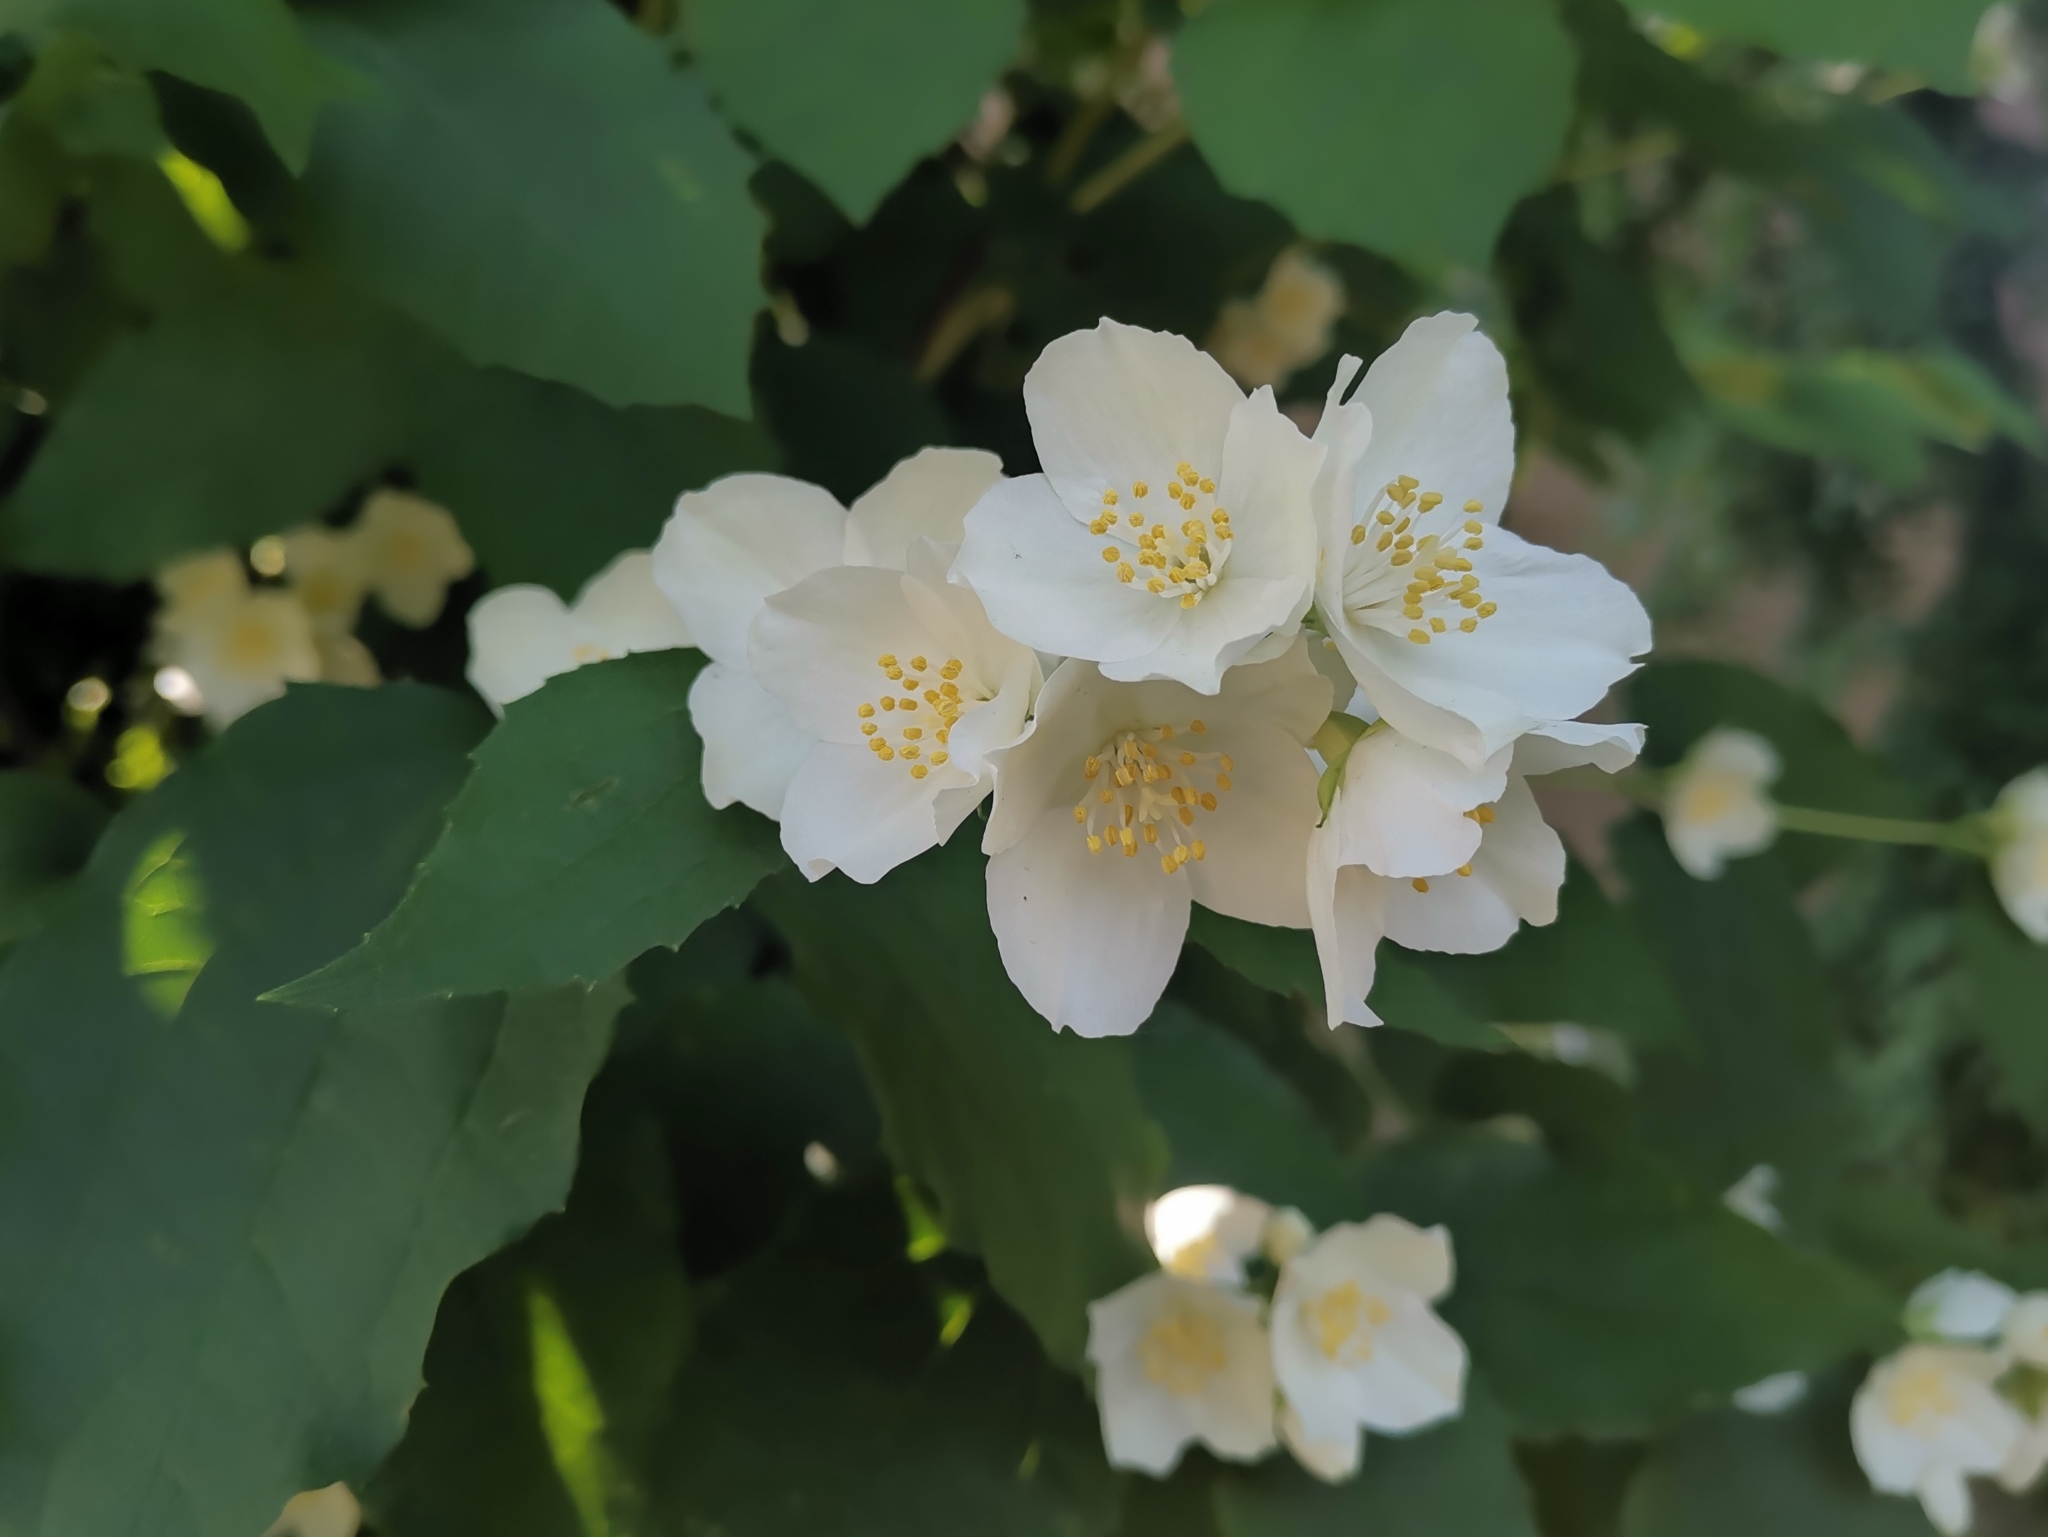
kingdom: Plantae
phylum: Tracheophyta
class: Magnoliopsida
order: Cornales
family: Hydrangeaceae
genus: Philadelphus
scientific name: Philadelphus coronarius
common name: Mock orange
